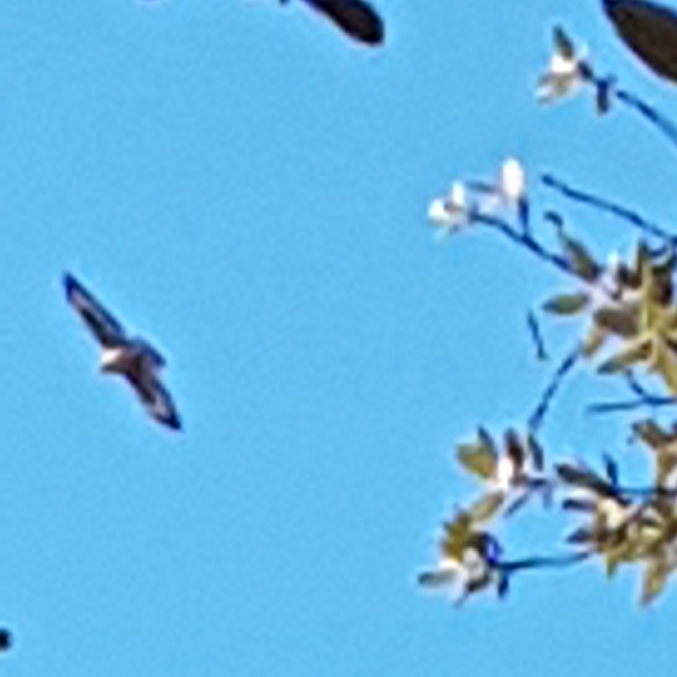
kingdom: Animalia
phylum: Chordata
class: Aves
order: Accipitriformes
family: Accipitridae
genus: Buteo
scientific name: Buteo buteo
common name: Common buzzard
